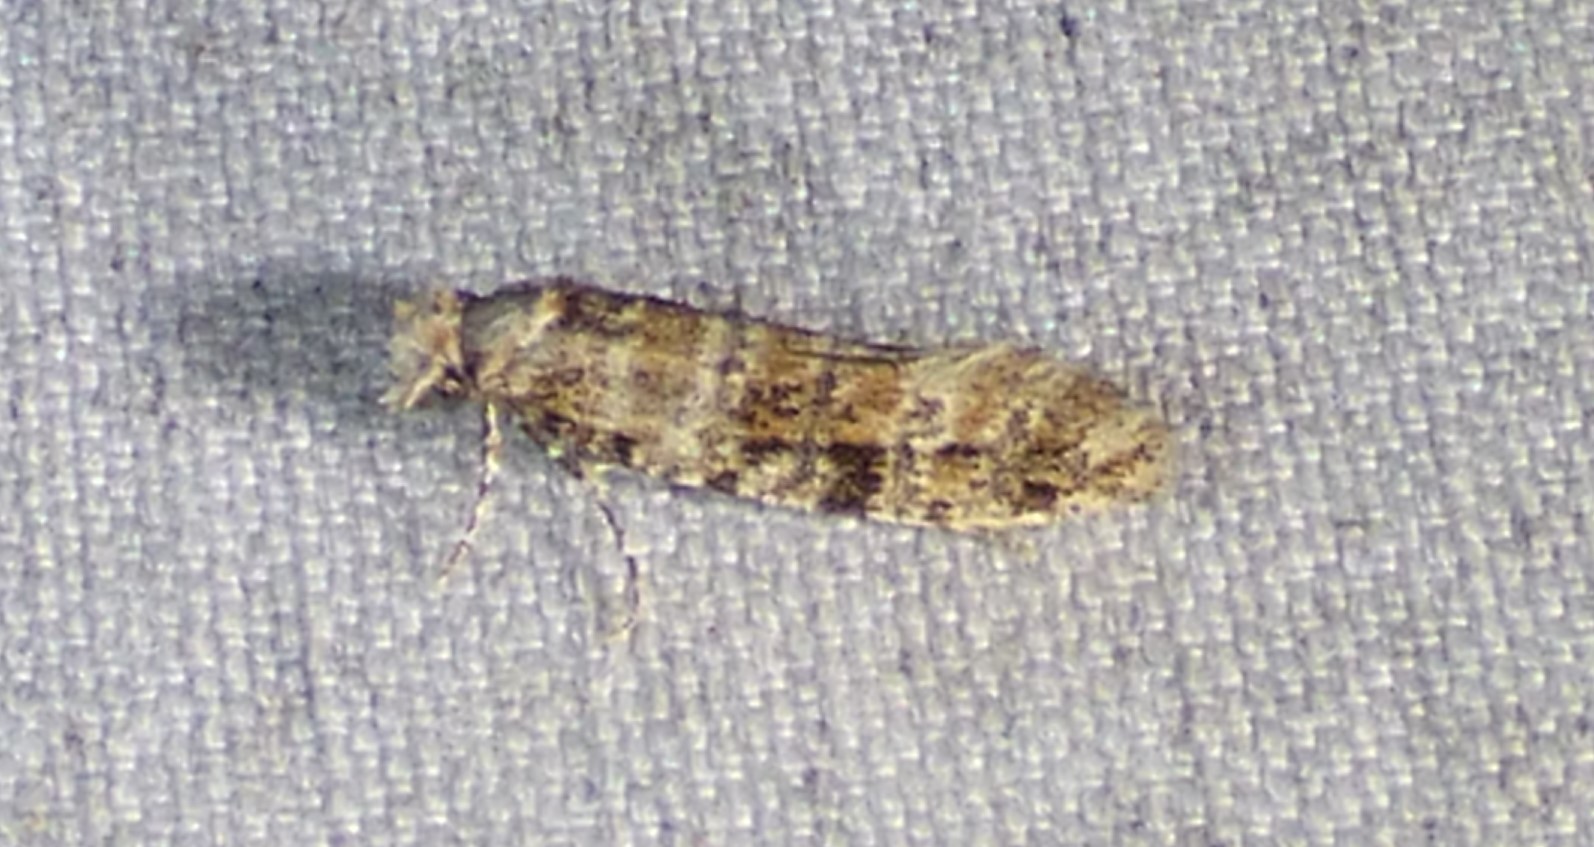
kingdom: Animalia
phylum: Arthropoda
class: Insecta
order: Lepidoptera
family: Tineidae
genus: Xylesthia
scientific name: Xylesthia pruniramiella
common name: Clemens' bark moth
